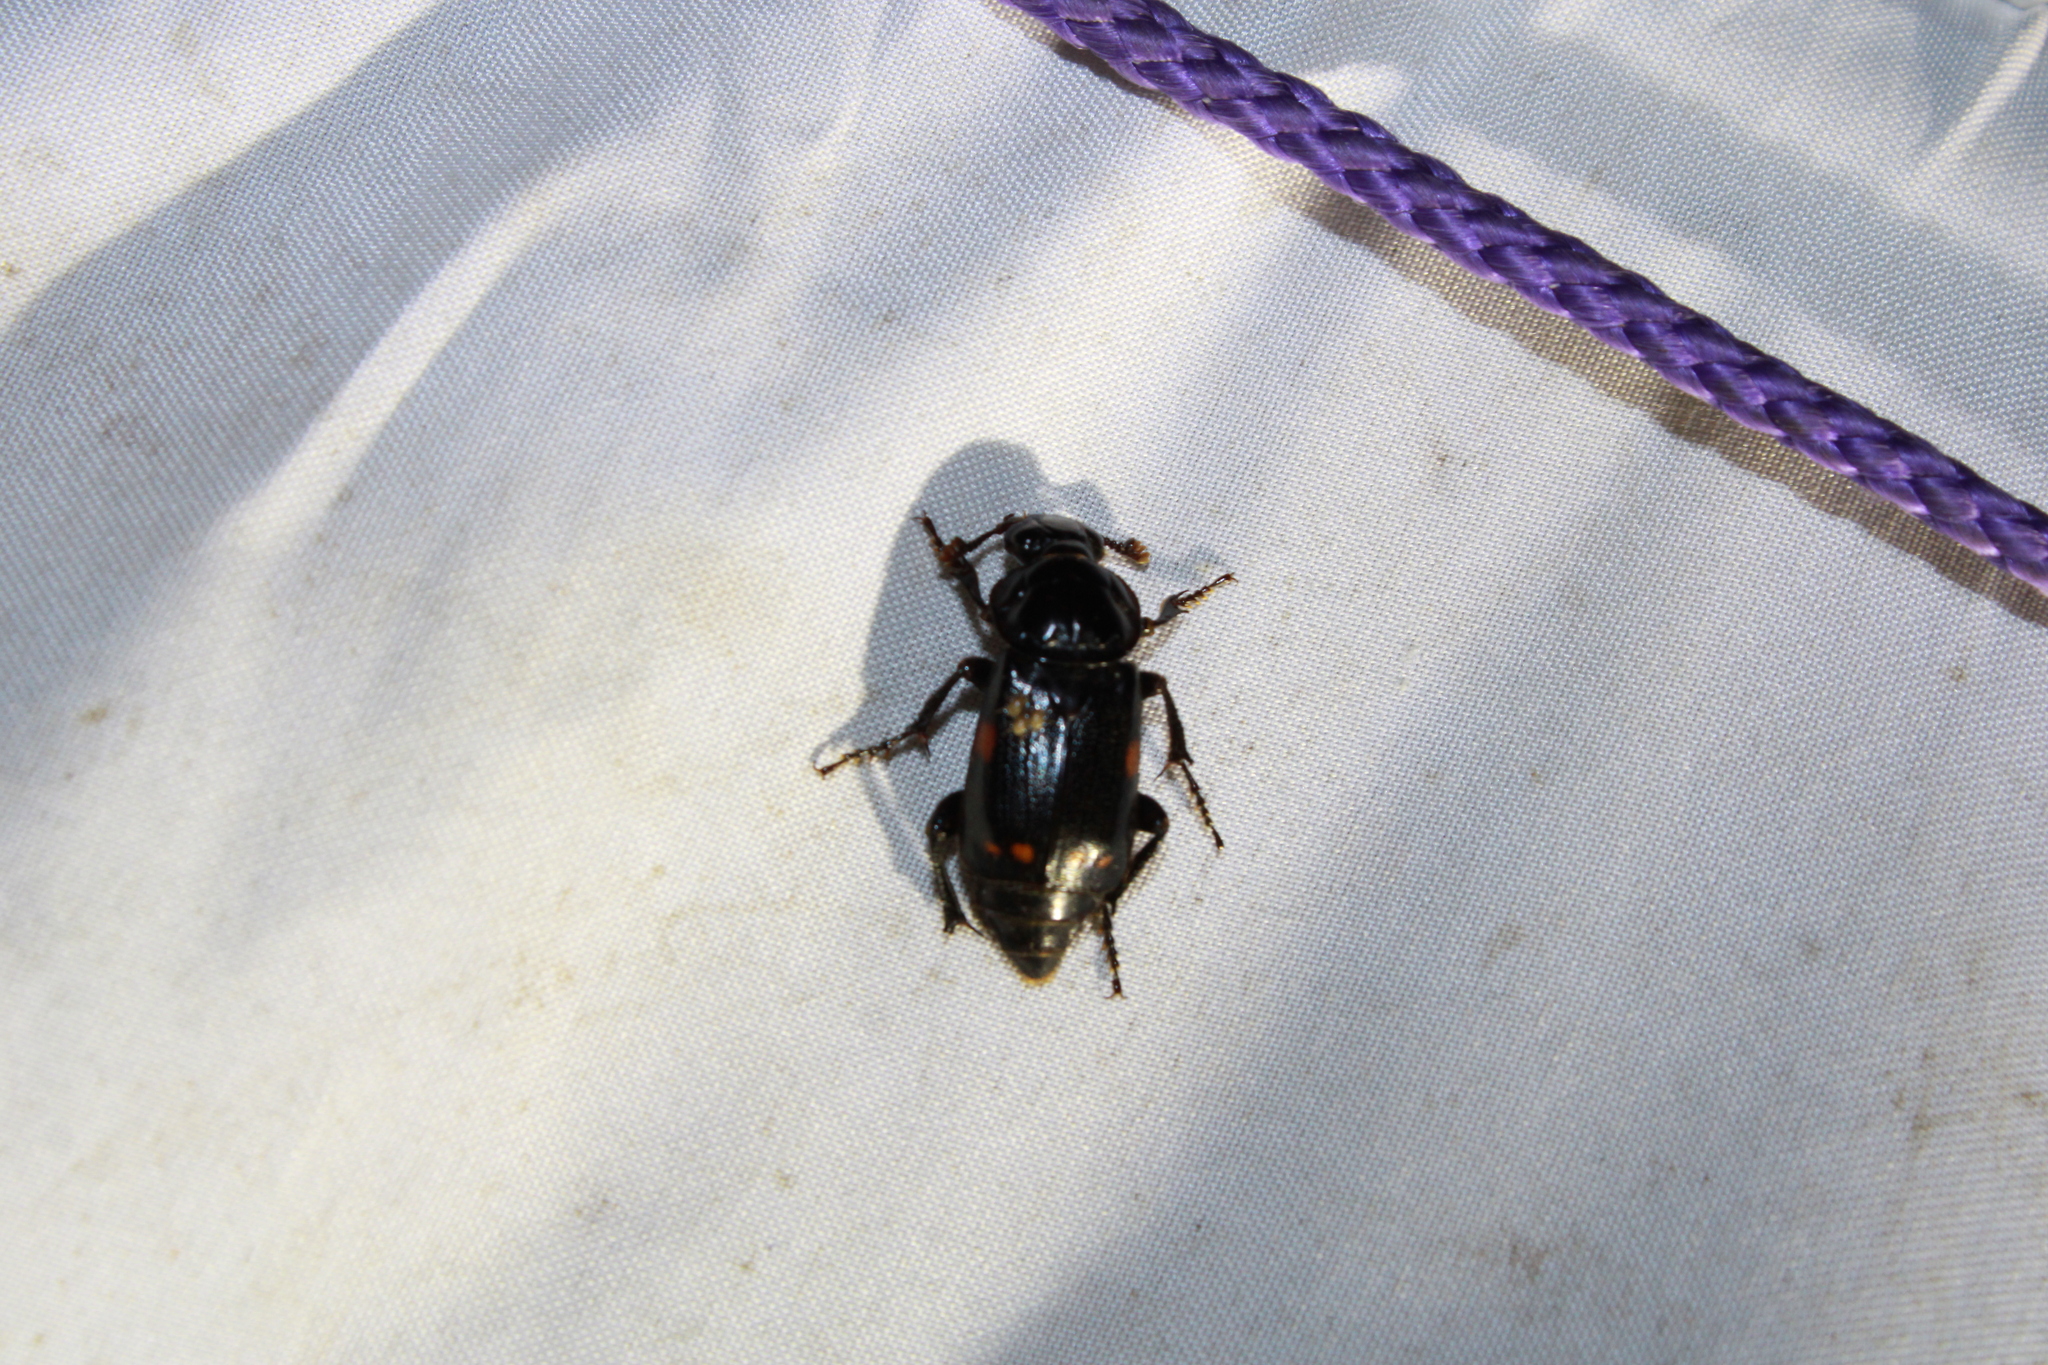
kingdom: Animalia
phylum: Arthropoda
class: Insecta
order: Coleoptera
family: Staphylinidae
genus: Nicrophorus
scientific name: Nicrophorus pustulatus
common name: Pustulated carrion beetle
